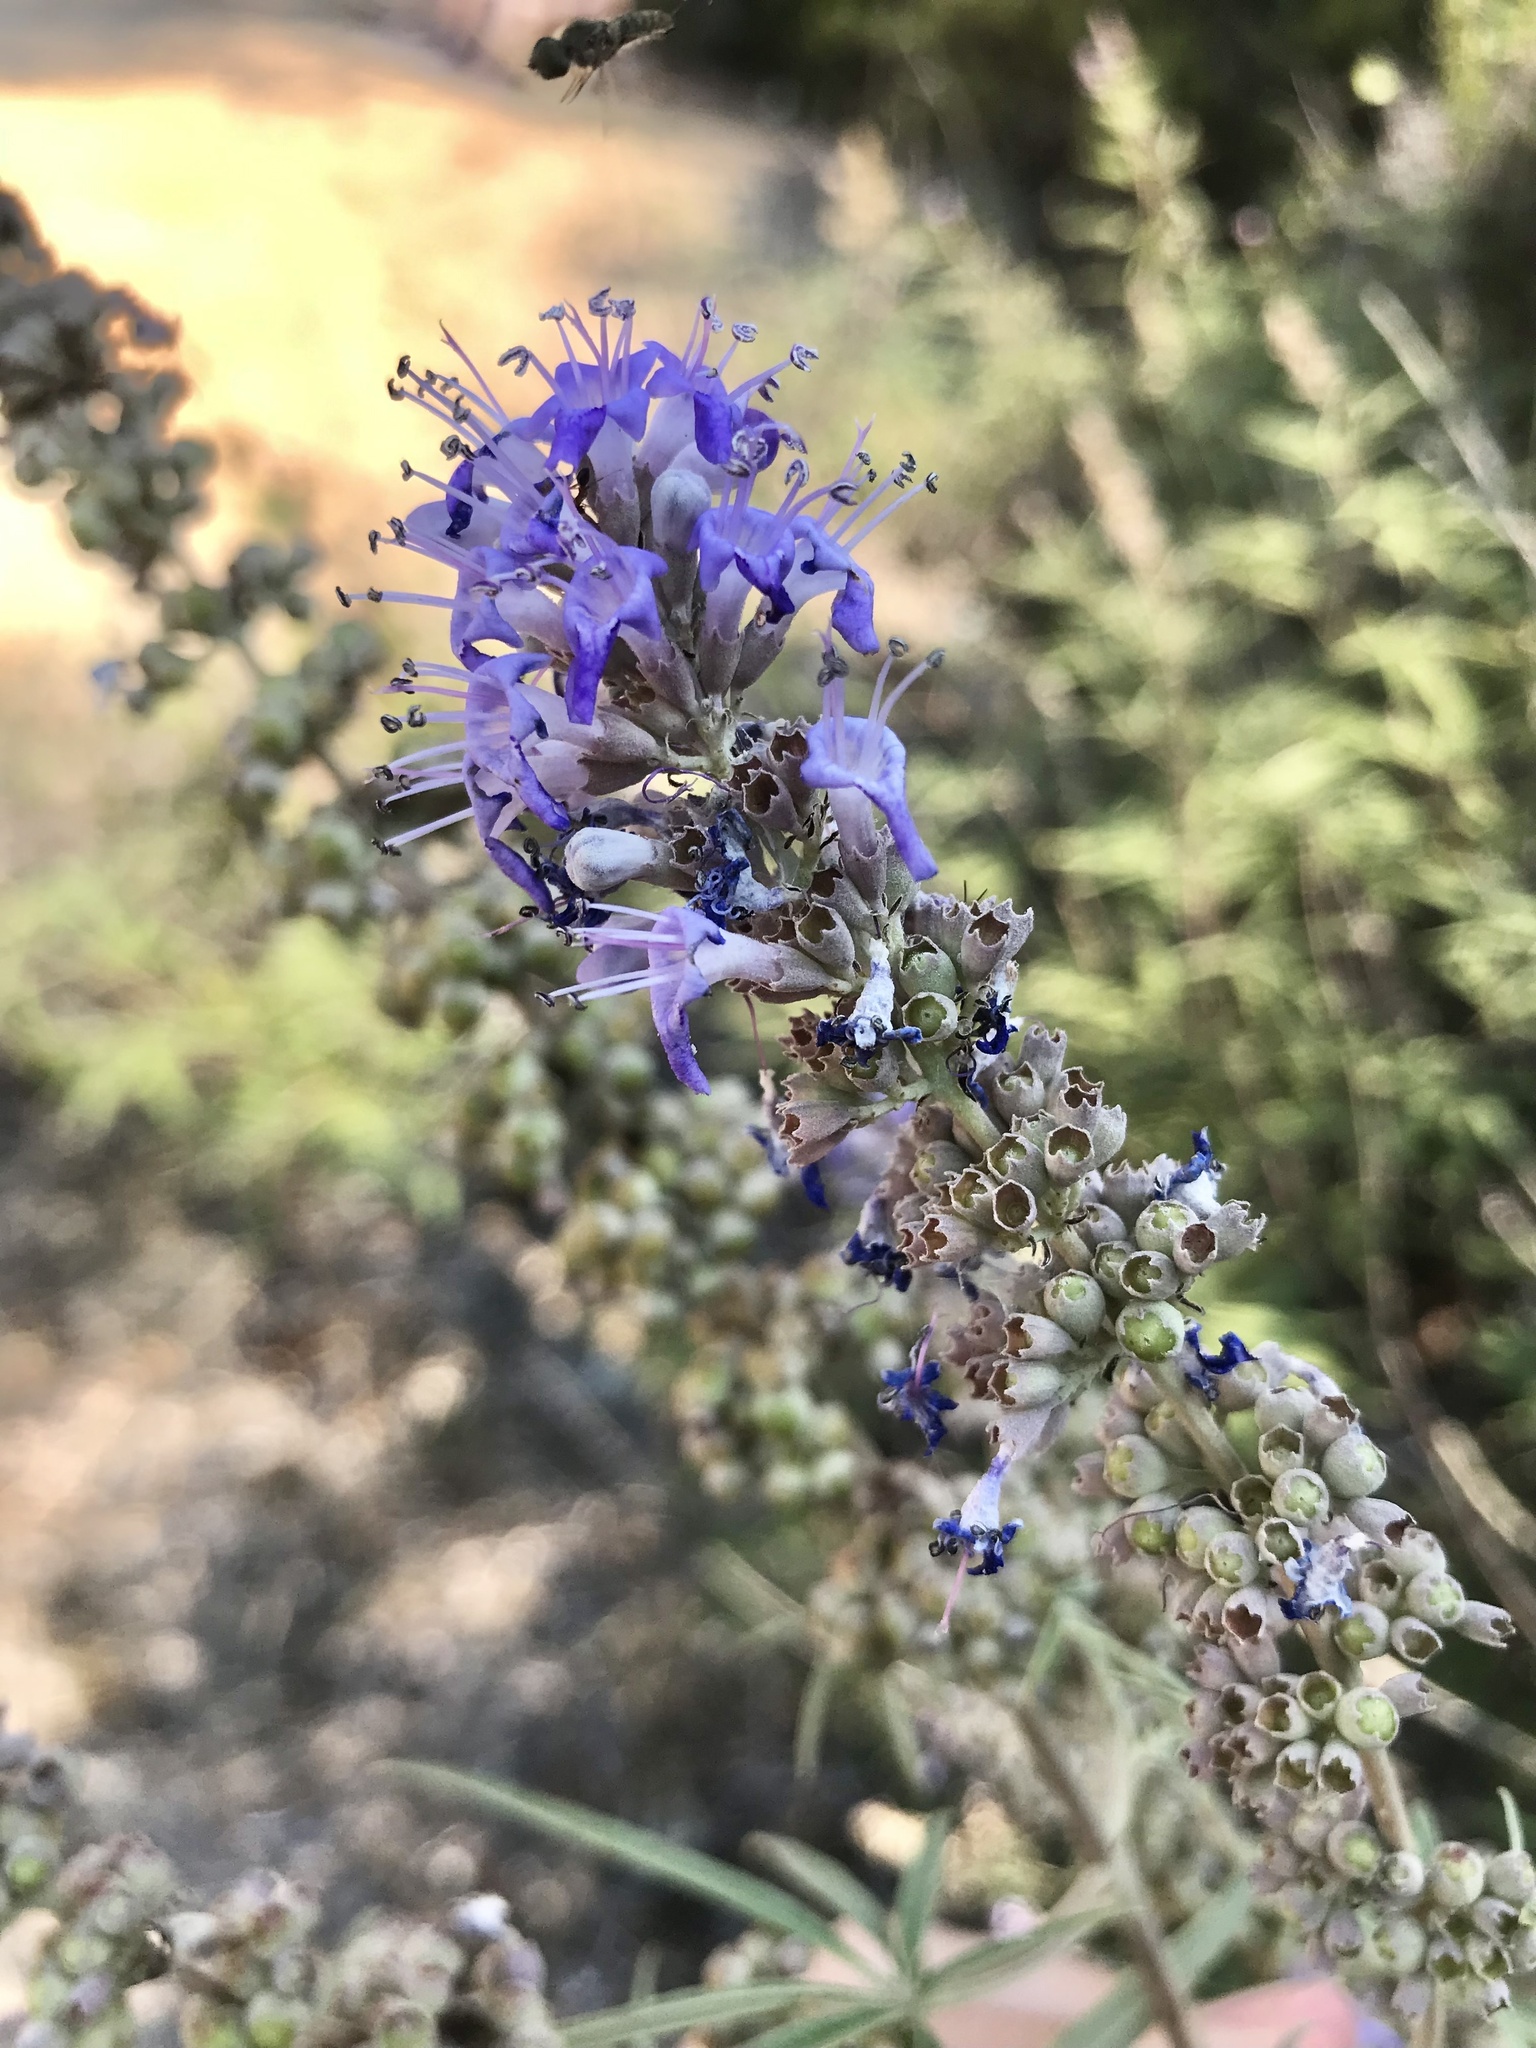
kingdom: Plantae
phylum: Tracheophyta
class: Magnoliopsida
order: Lamiales
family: Lamiaceae
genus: Vitex
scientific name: Vitex agnus-castus
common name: Chasteberry
